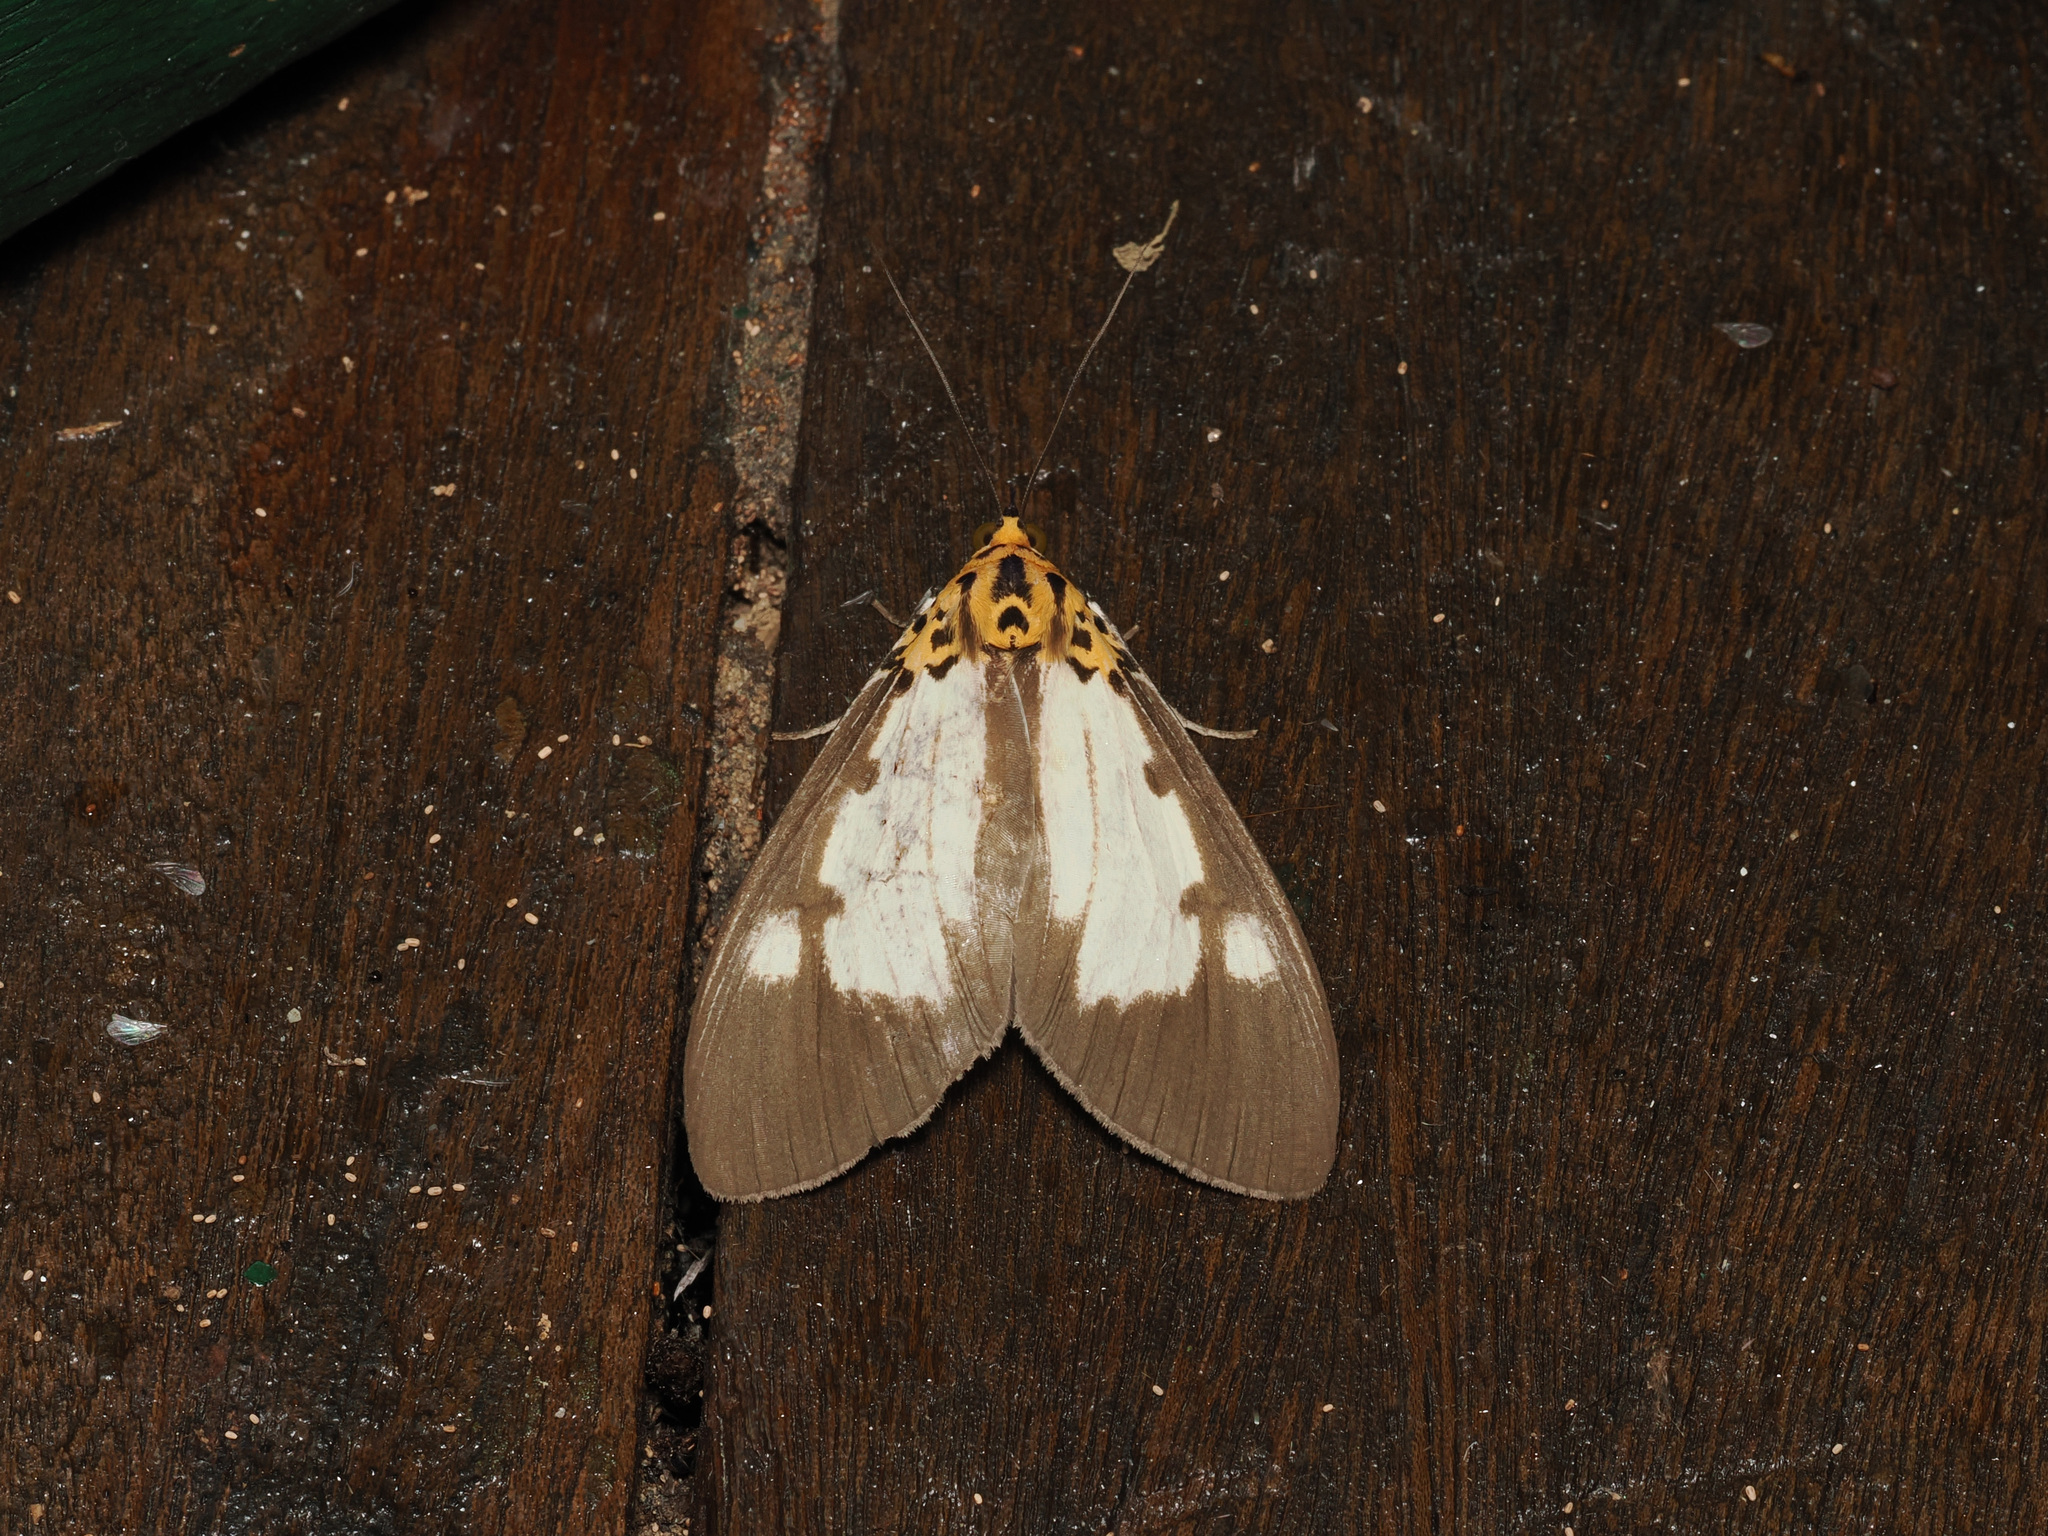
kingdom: Animalia
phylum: Arthropoda
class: Insecta
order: Lepidoptera
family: Erebidae
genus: Asota
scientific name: Asota plana
